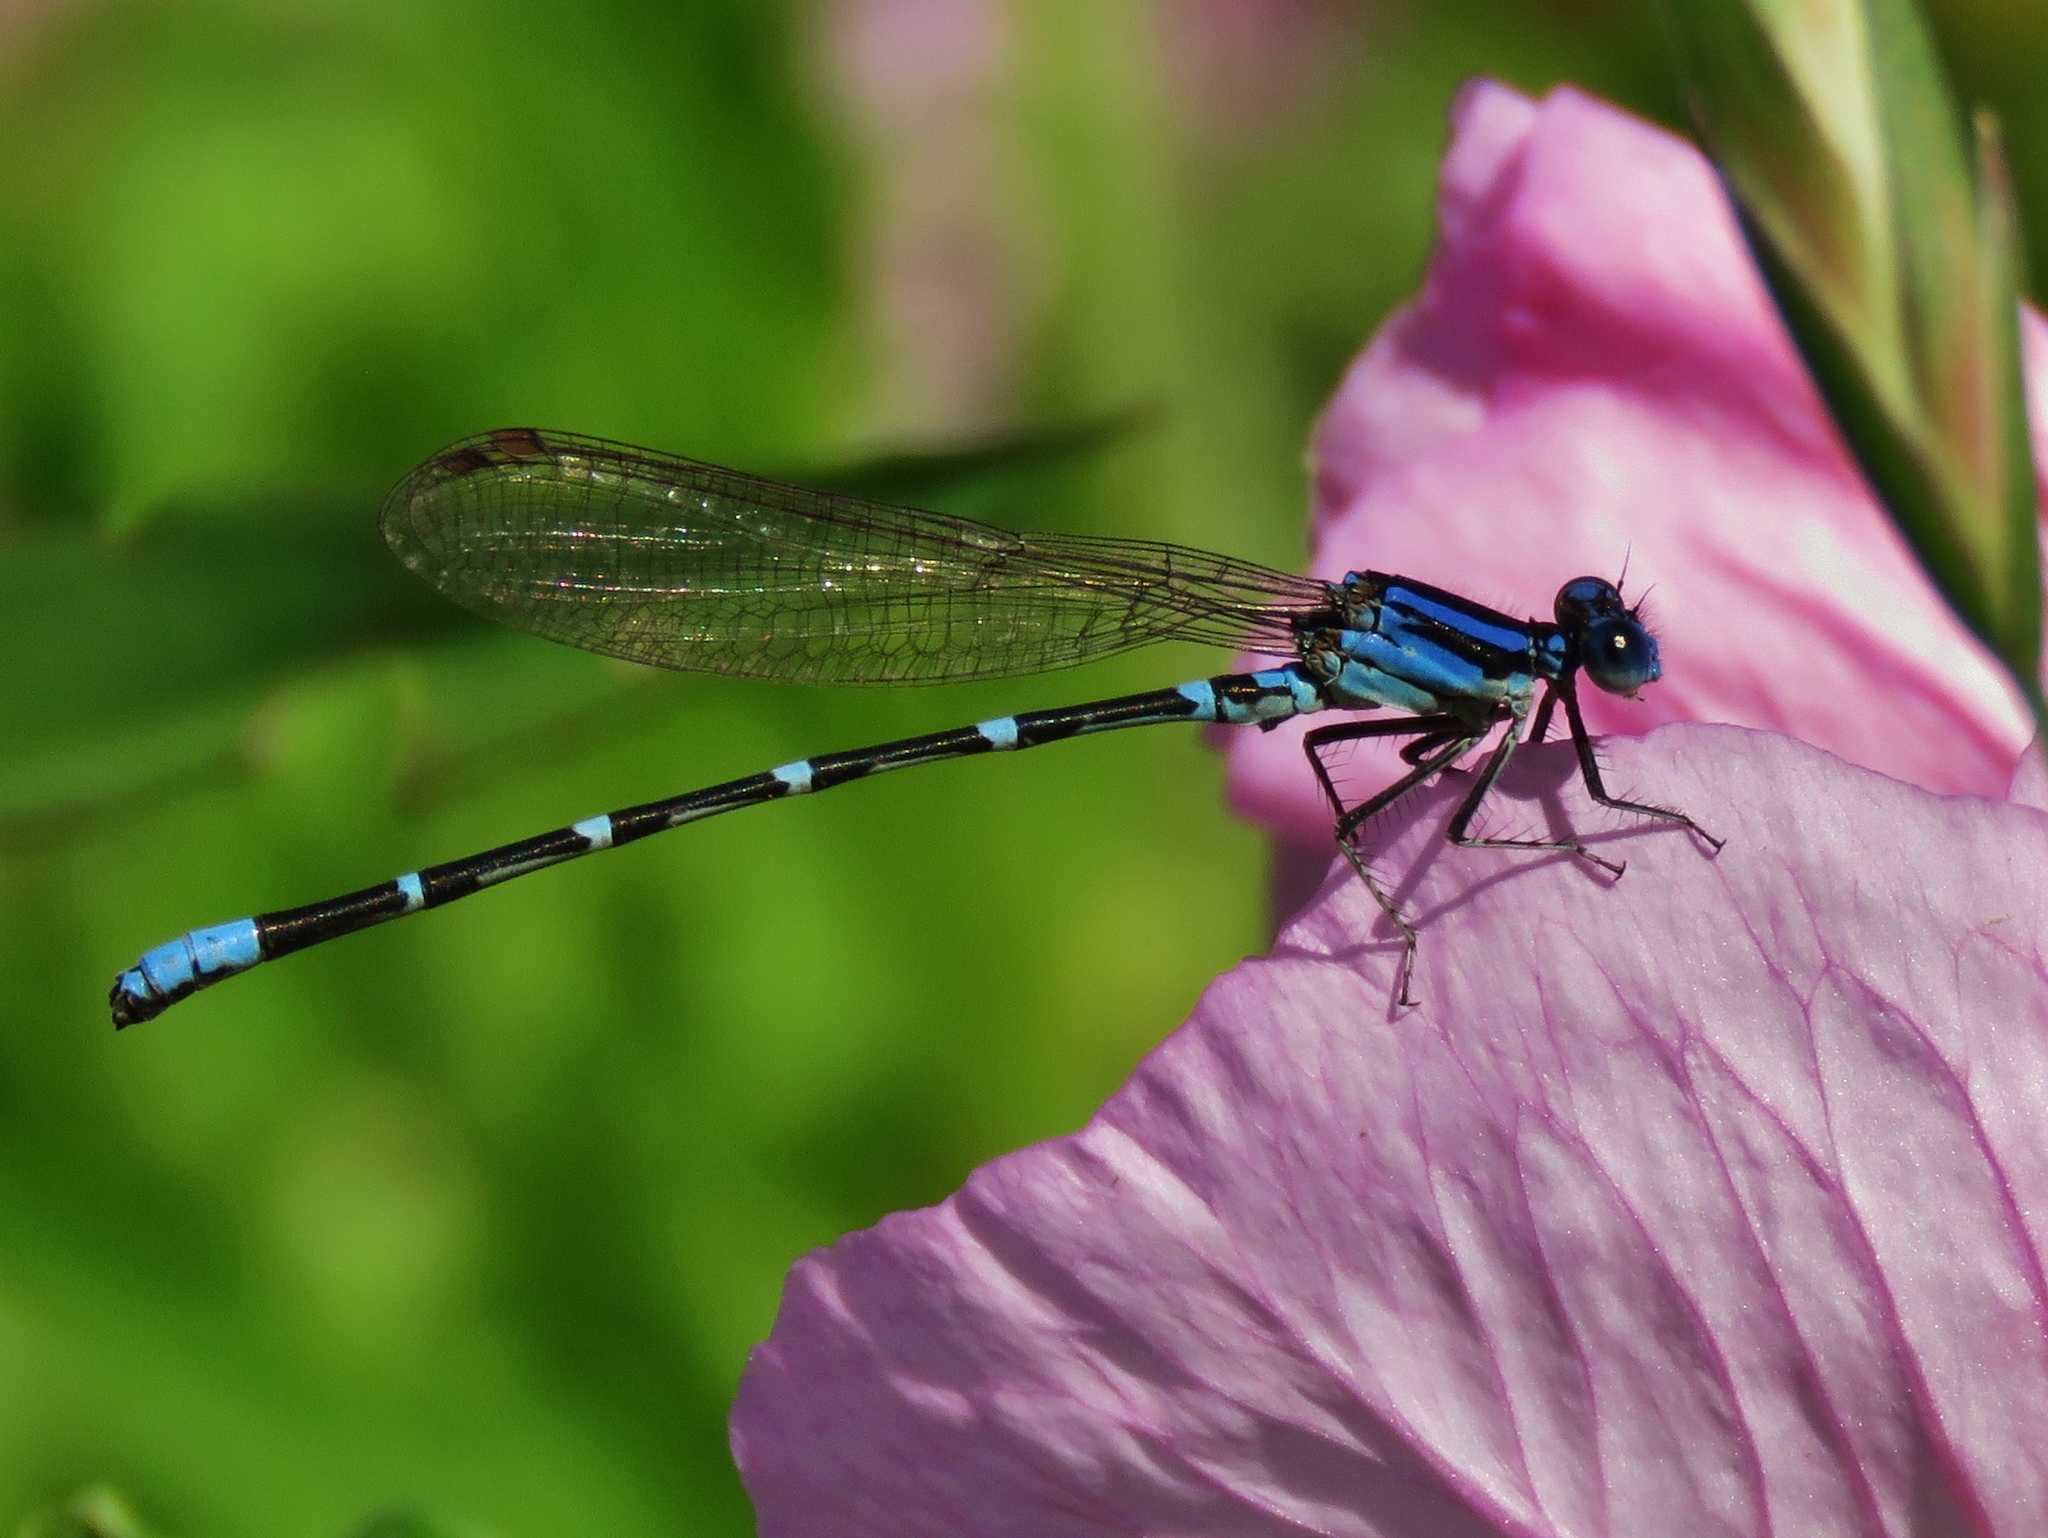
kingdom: Animalia
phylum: Arthropoda
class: Insecta
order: Odonata
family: Coenagrionidae
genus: Argia
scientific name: Argia sedula
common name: Blue-ringed dancer
